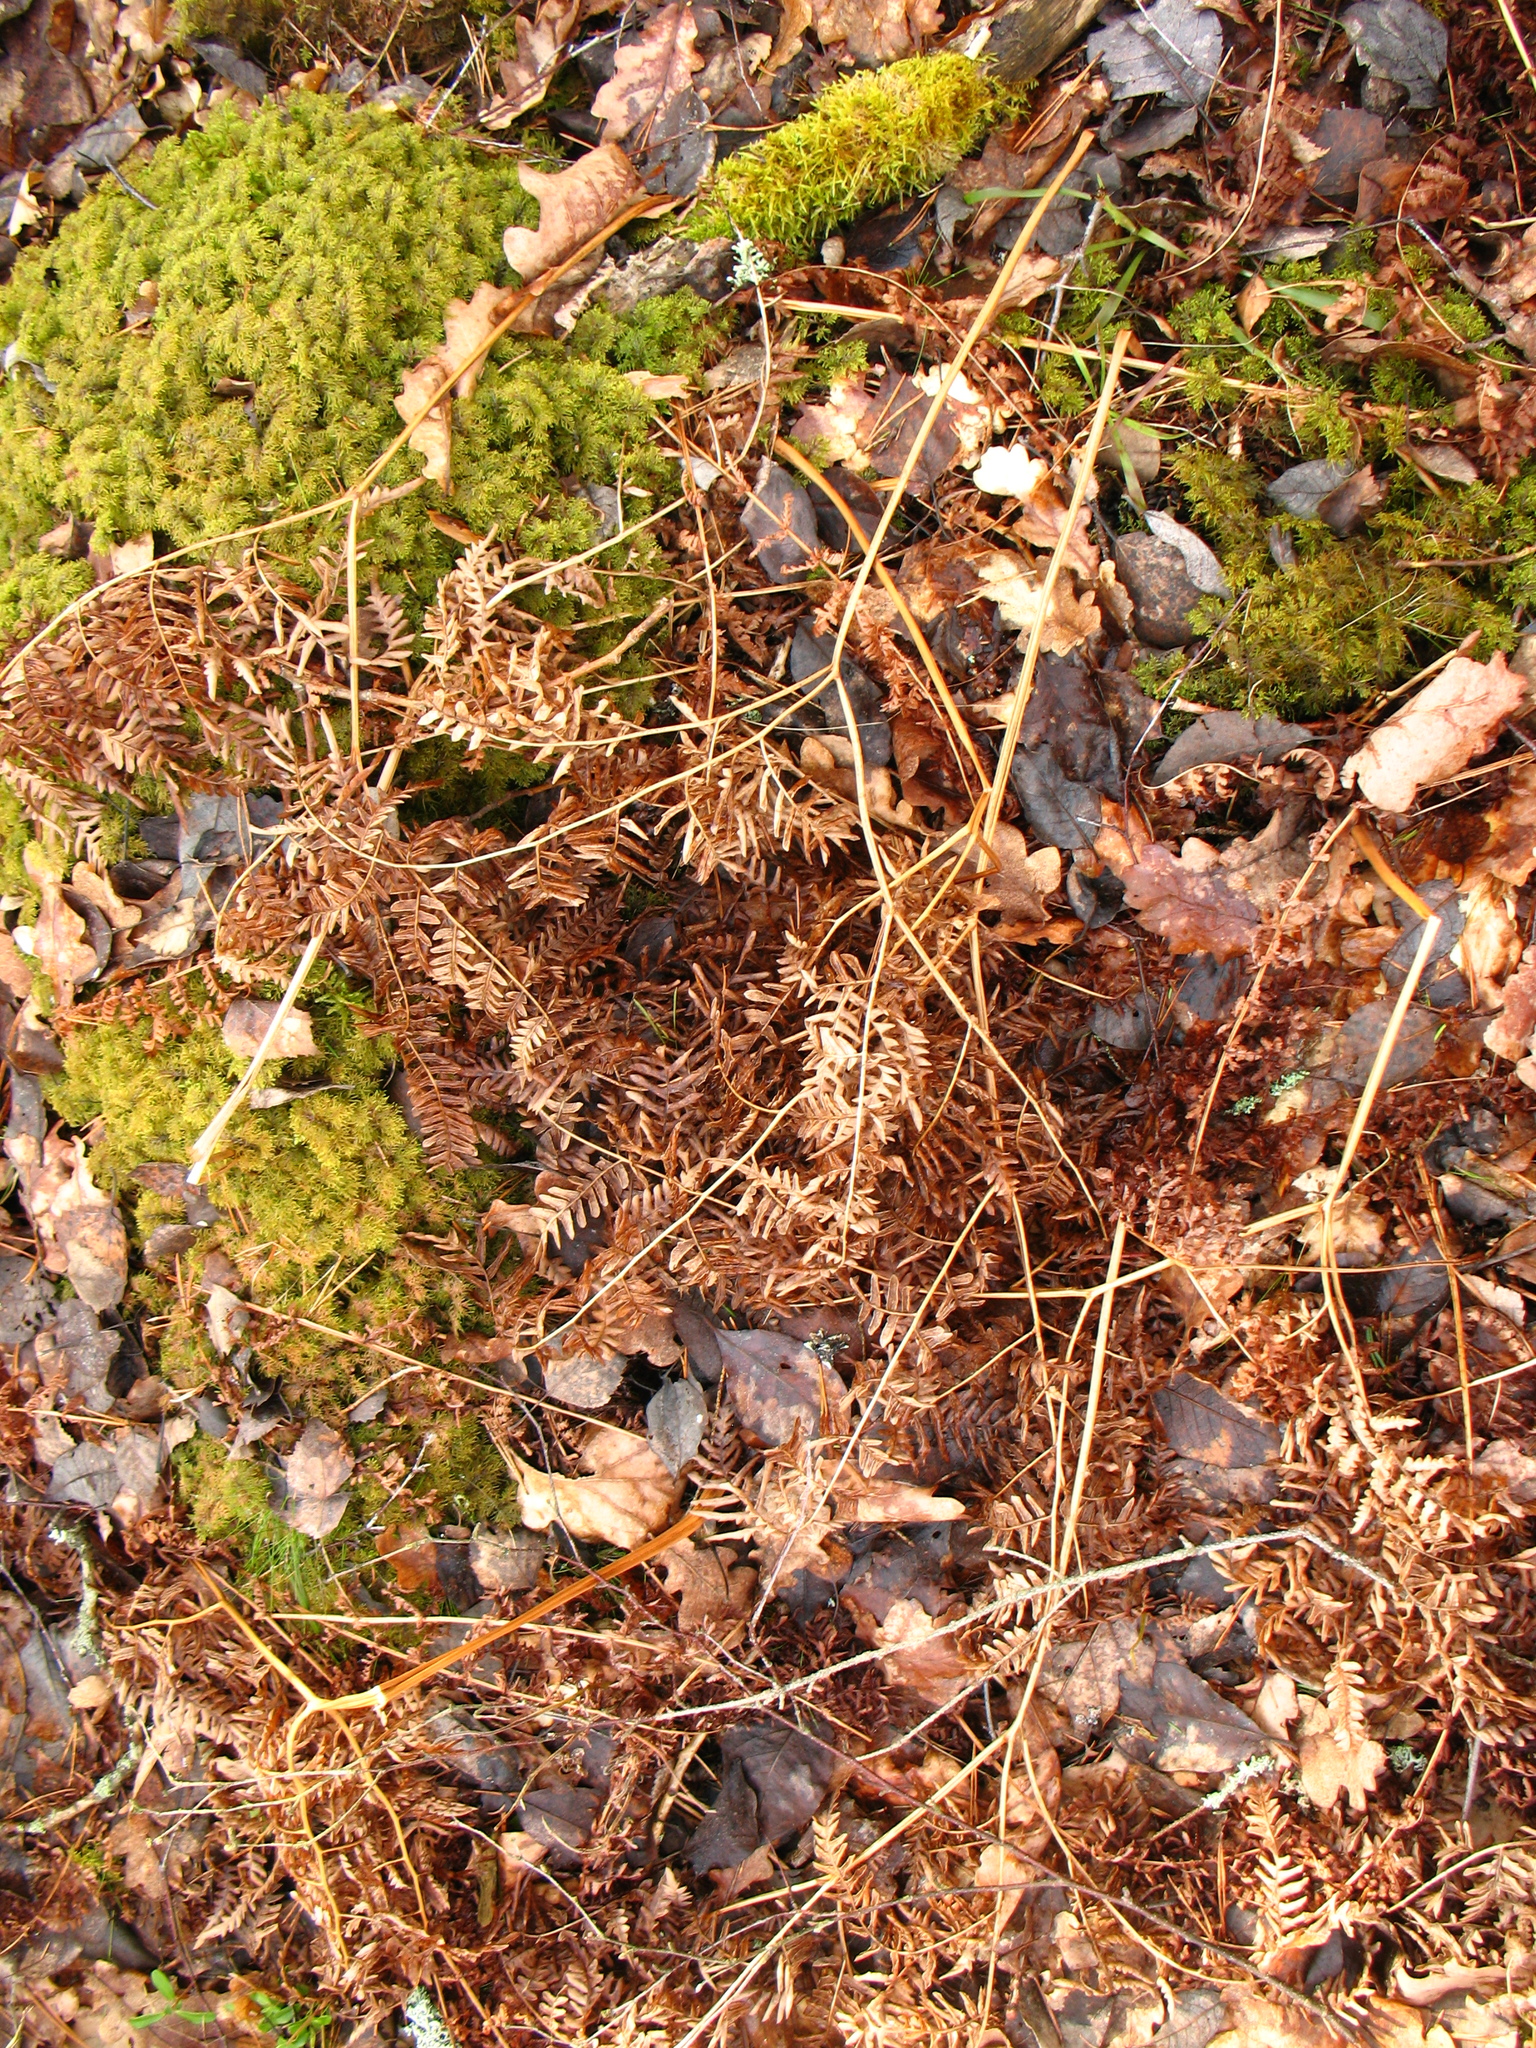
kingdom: Plantae
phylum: Tracheophyta
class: Polypodiopsida
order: Polypodiales
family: Dennstaedtiaceae
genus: Pteridium
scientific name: Pteridium aquilinum
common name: Bracken
